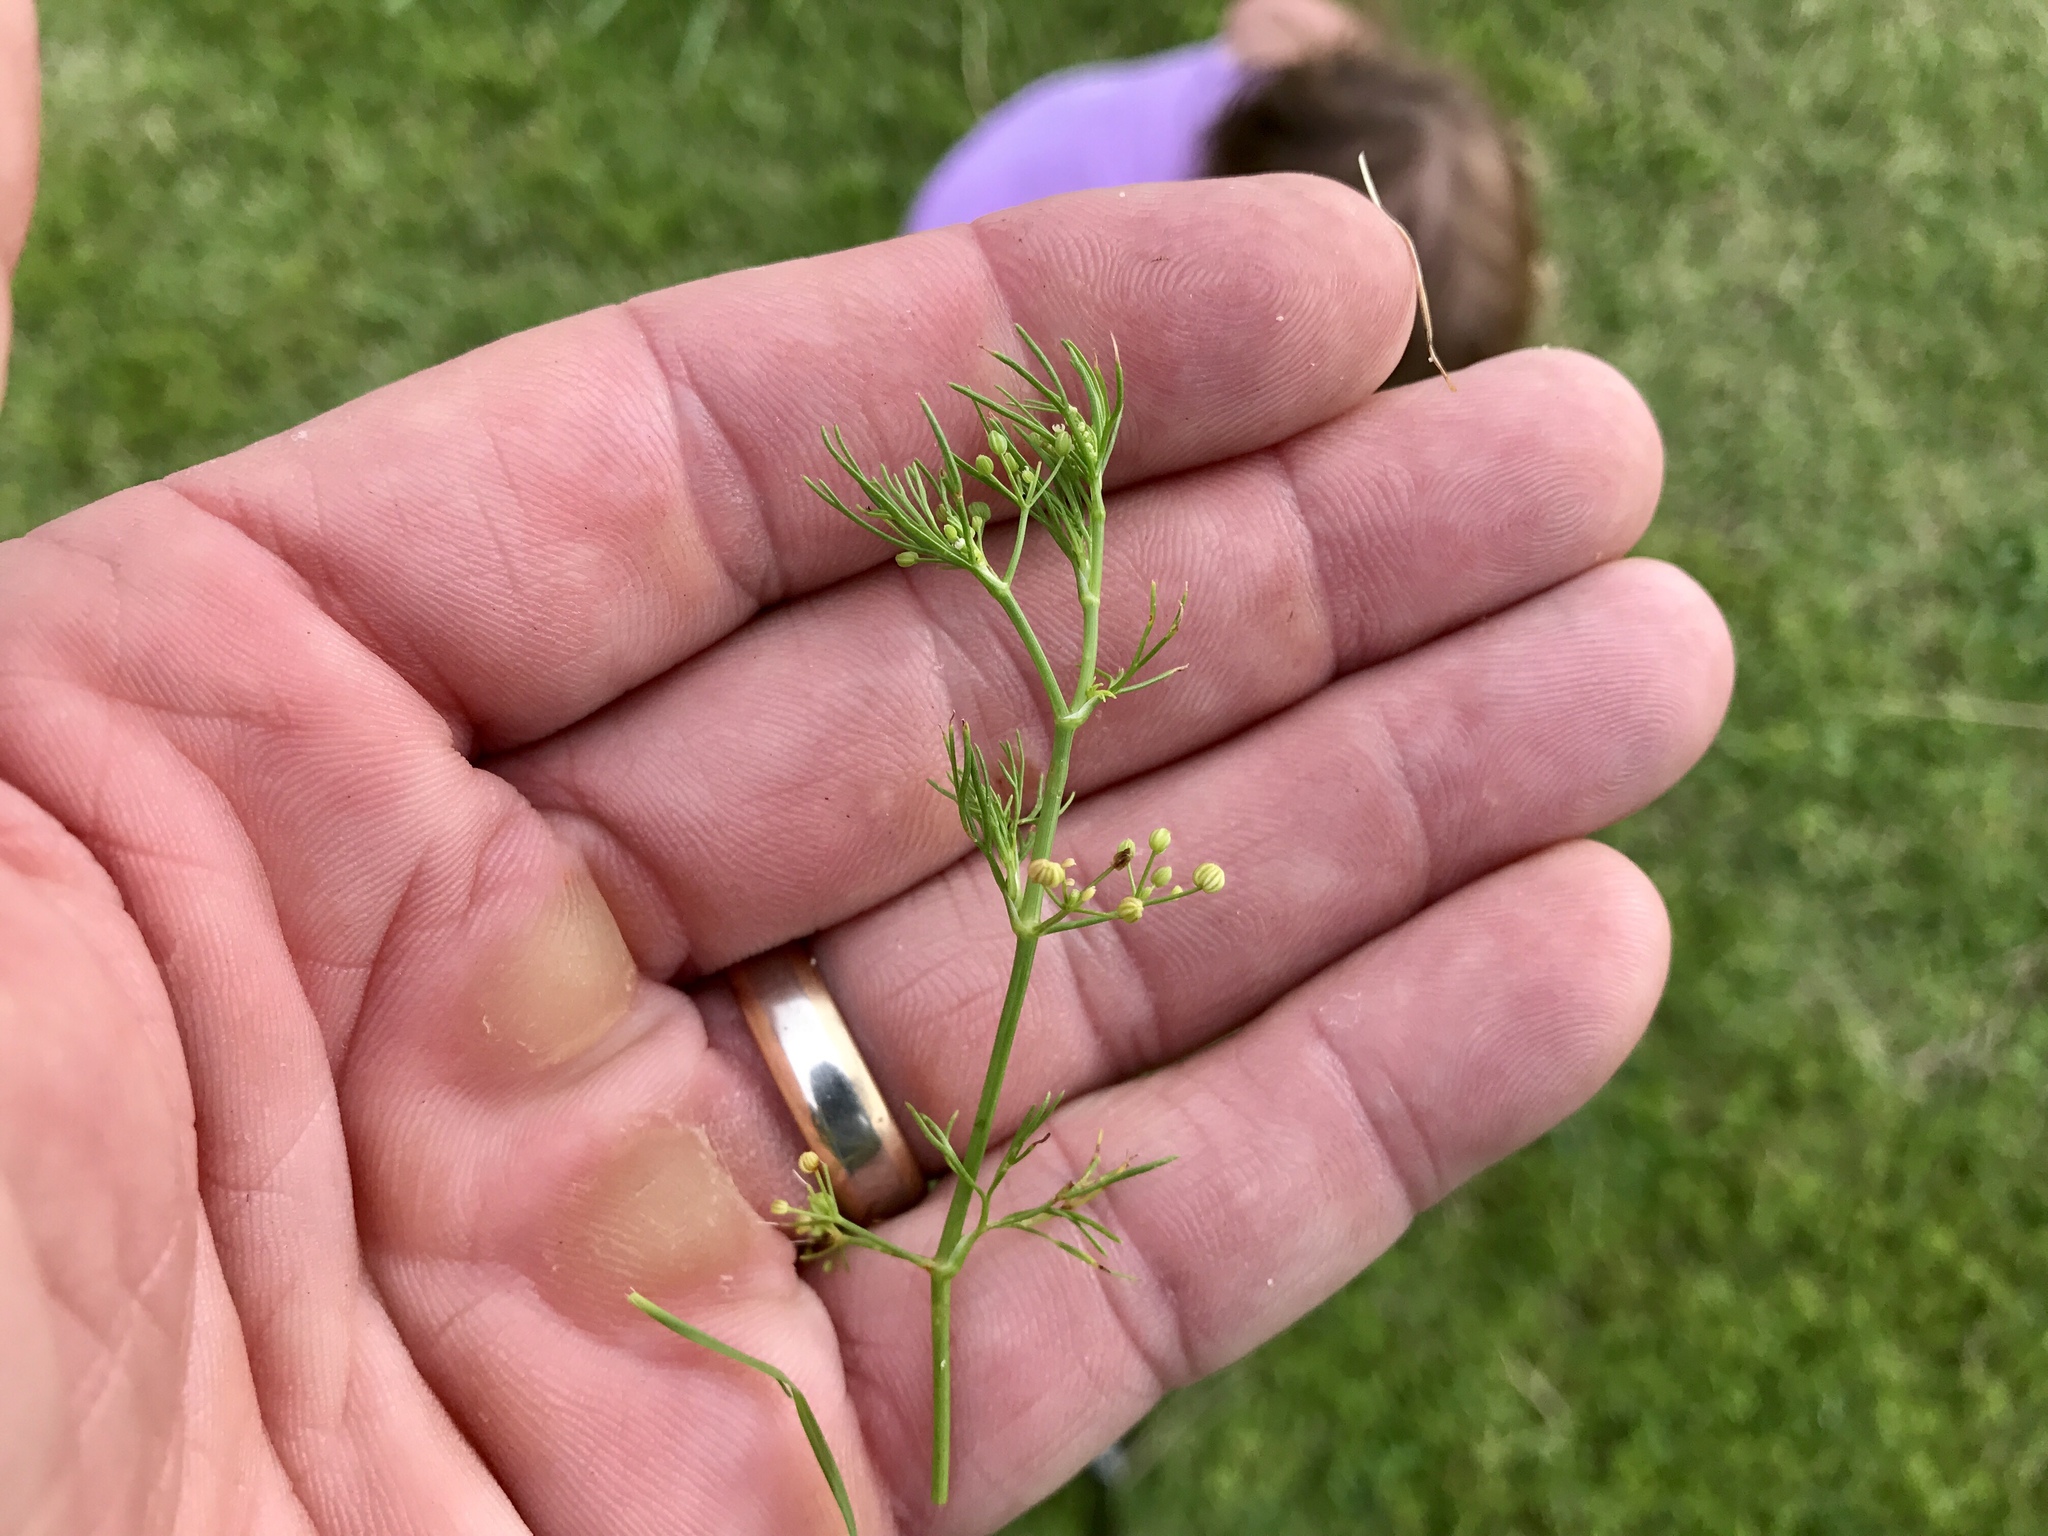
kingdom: Plantae
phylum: Tracheophyta
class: Magnoliopsida
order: Apiales
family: Apiaceae
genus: Cyclospermum
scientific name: Cyclospermum leptophyllum
